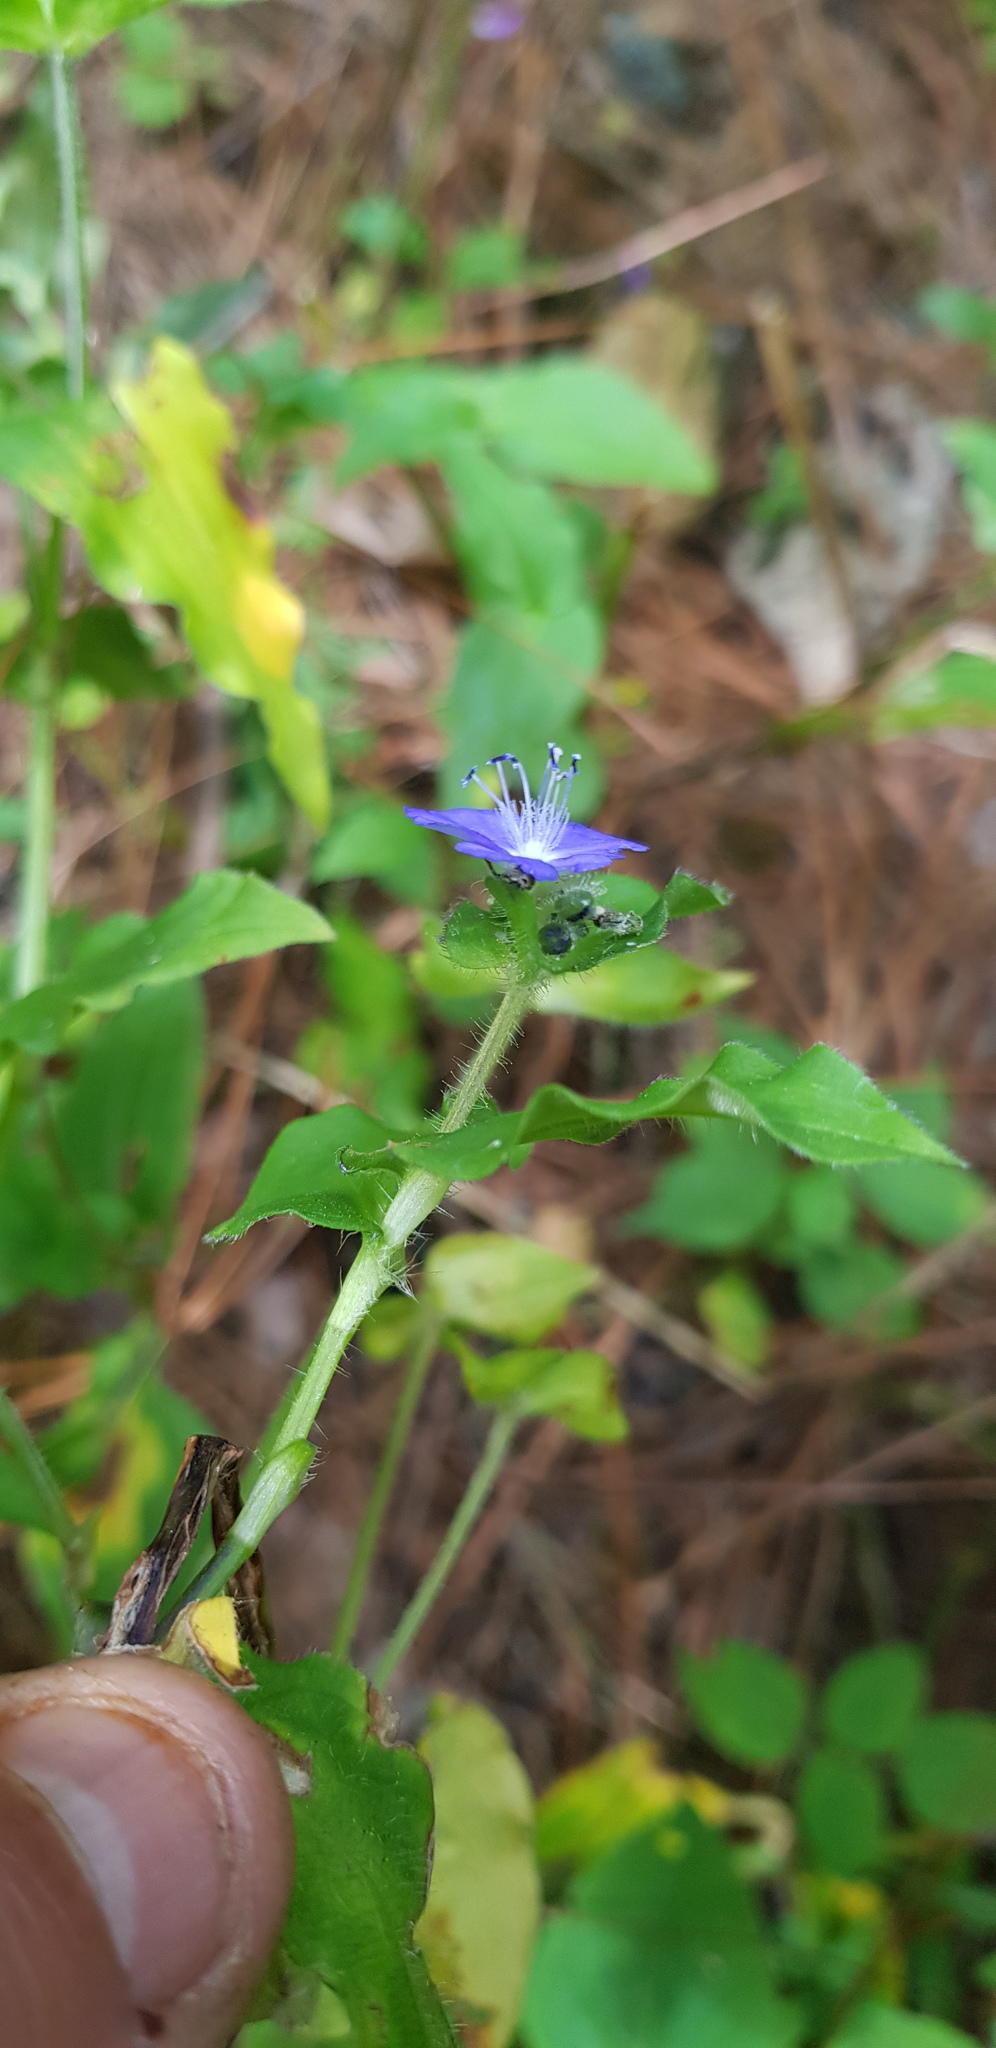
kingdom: Plantae
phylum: Tracheophyta
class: Liliopsida
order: Commelinales
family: Commelinaceae
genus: Tradescantia
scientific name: Tradescantia commelinoides
